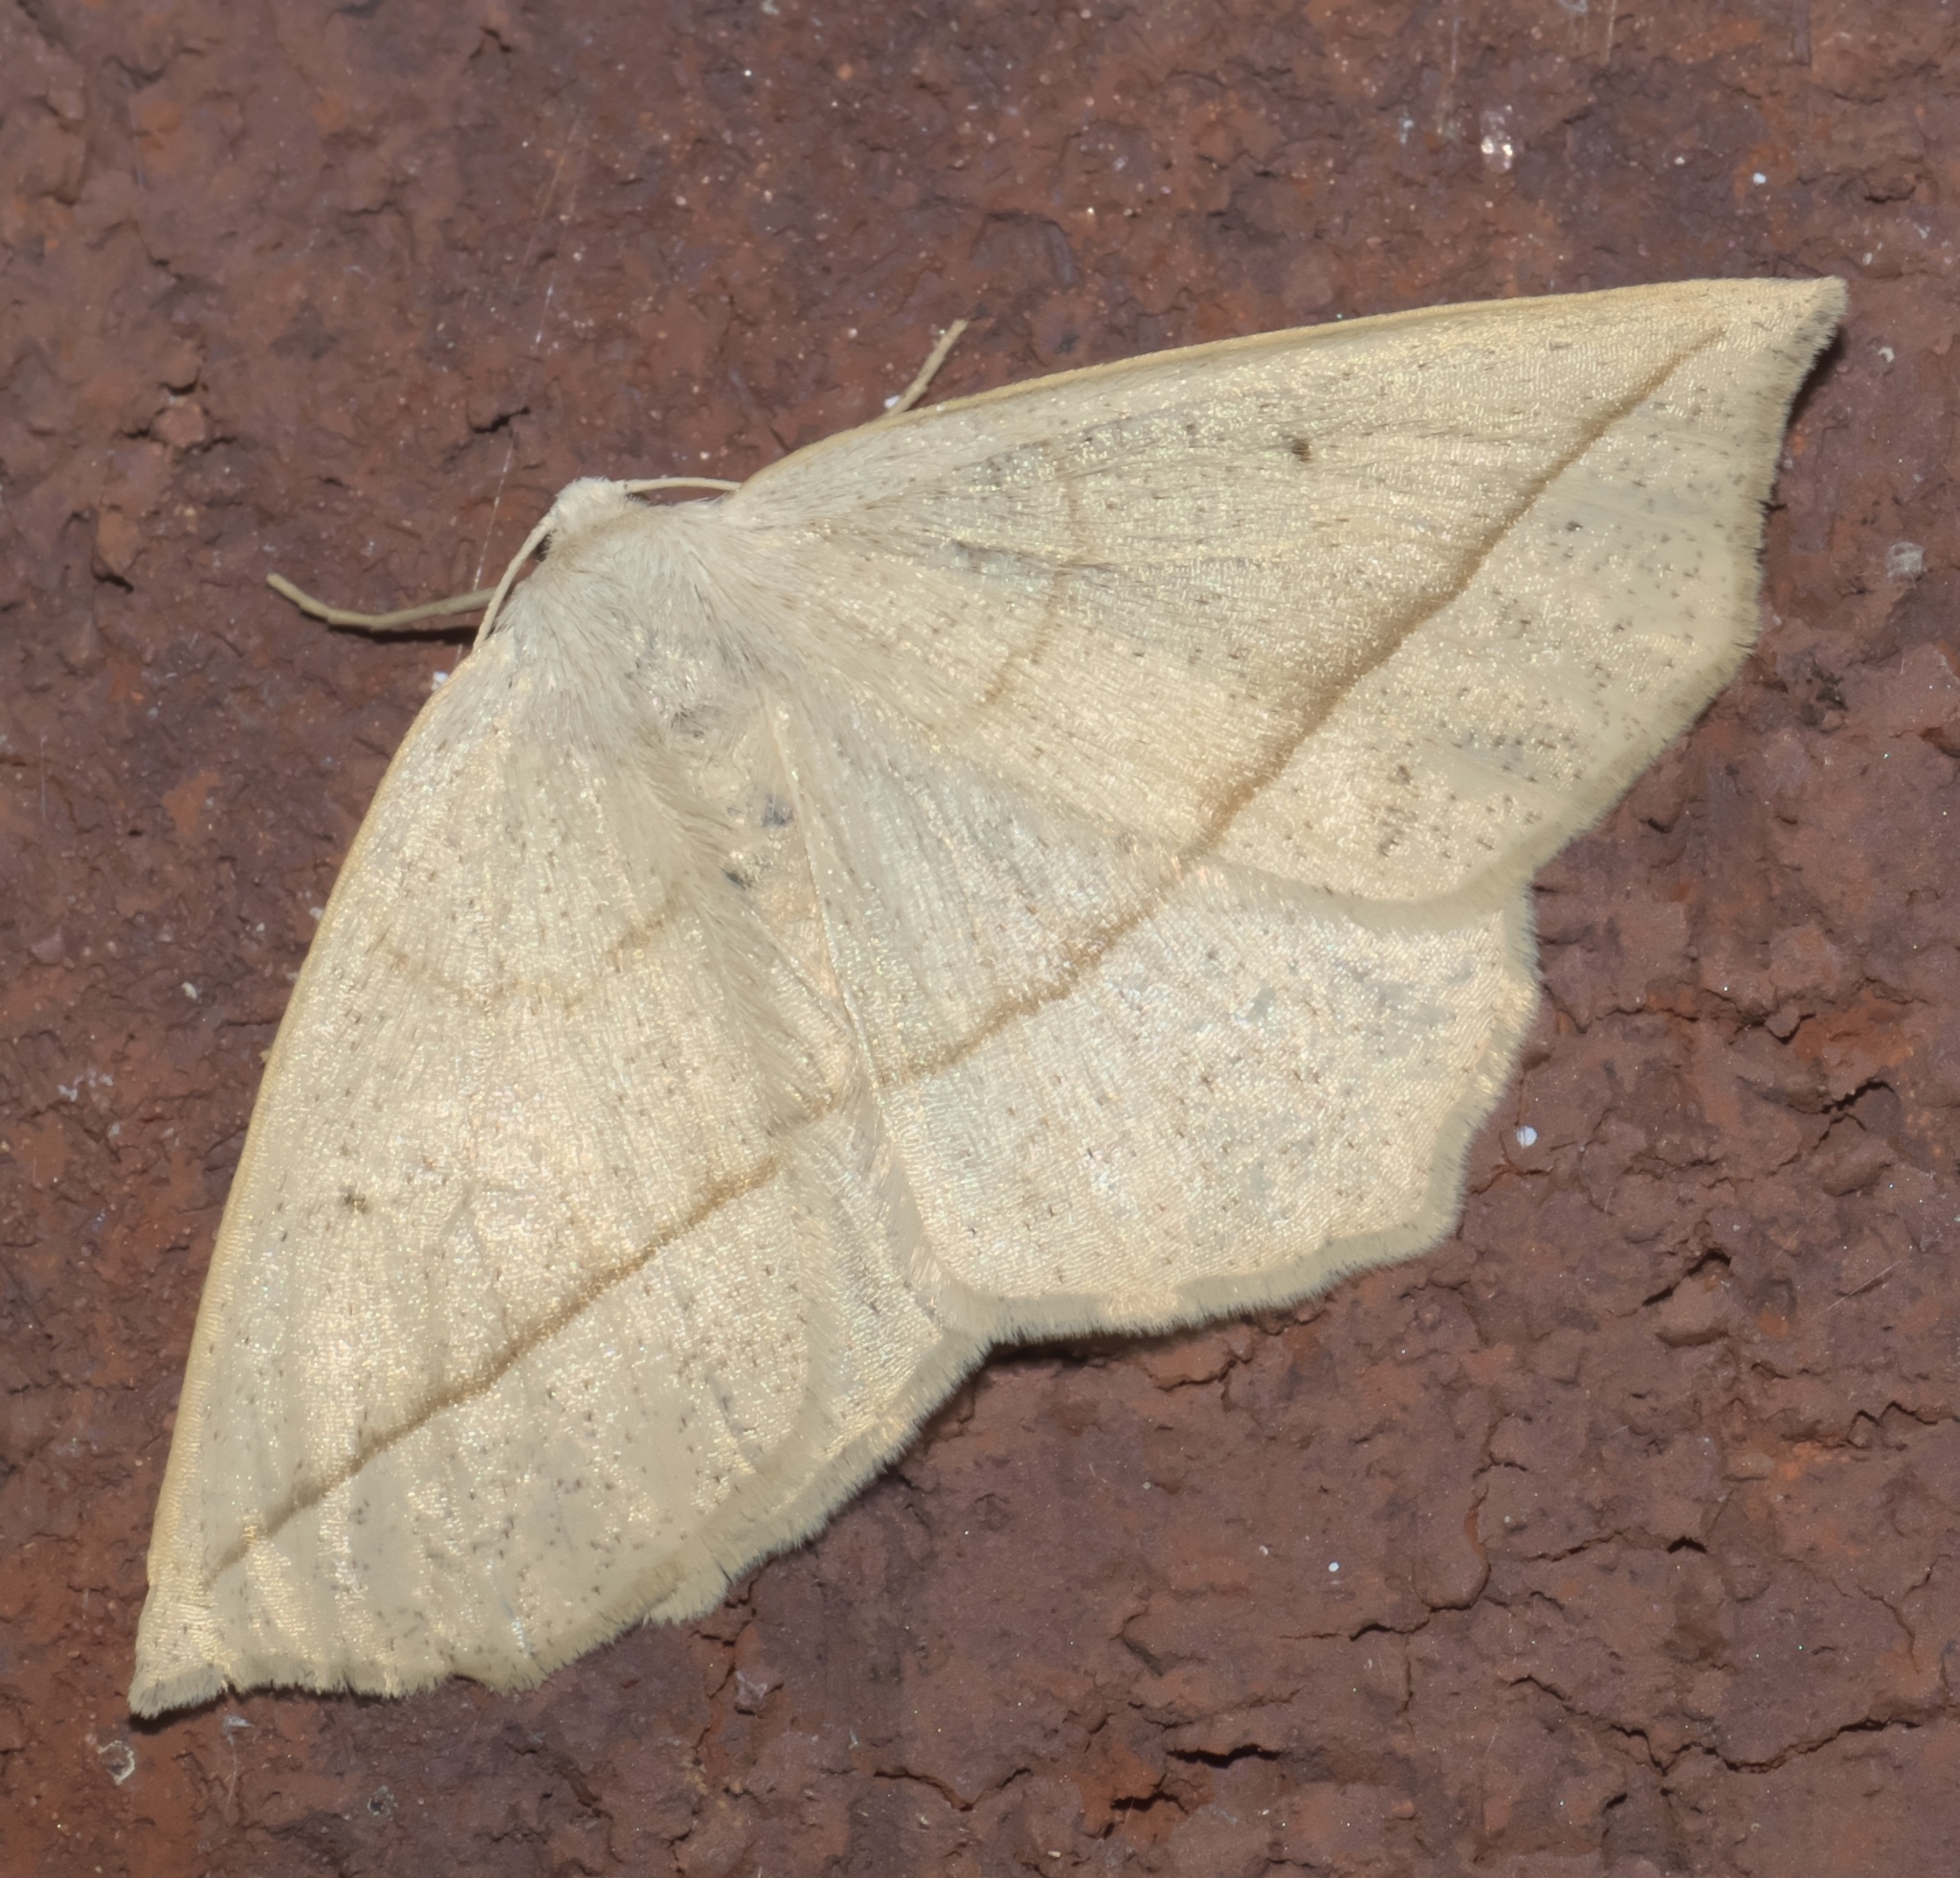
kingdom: Animalia
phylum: Arthropoda
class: Insecta
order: Lepidoptera
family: Geometridae
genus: Eusarca
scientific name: Eusarca confusaria
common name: Confused eusarca
